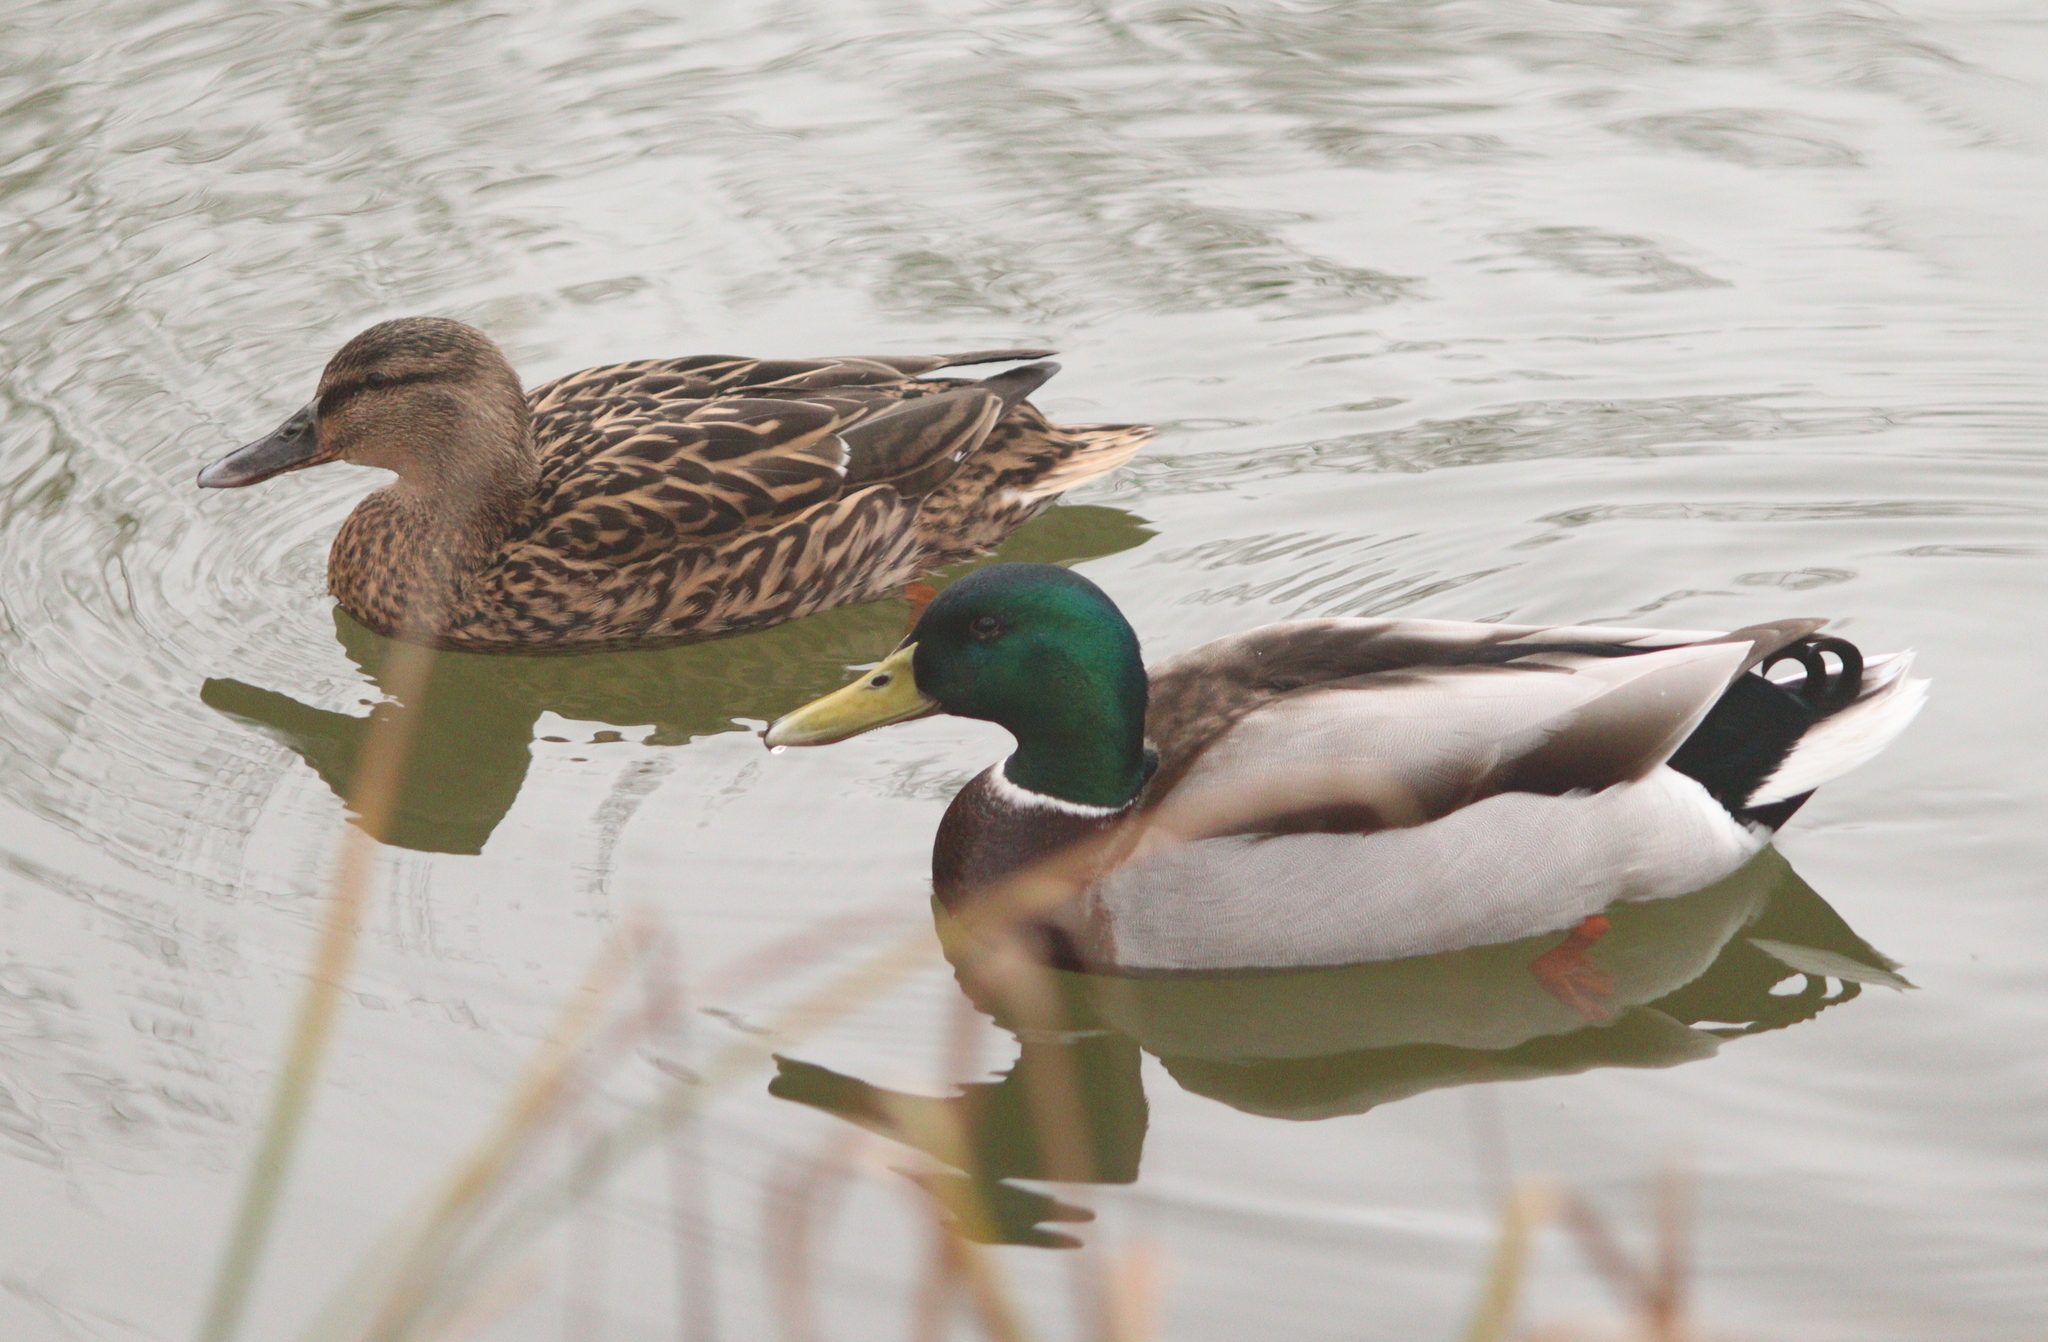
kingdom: Animalia
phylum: Chordata
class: Aves
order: Anseriformes
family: Anatidae
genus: Anas
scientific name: Anas platyrhynchos
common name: Mallard
